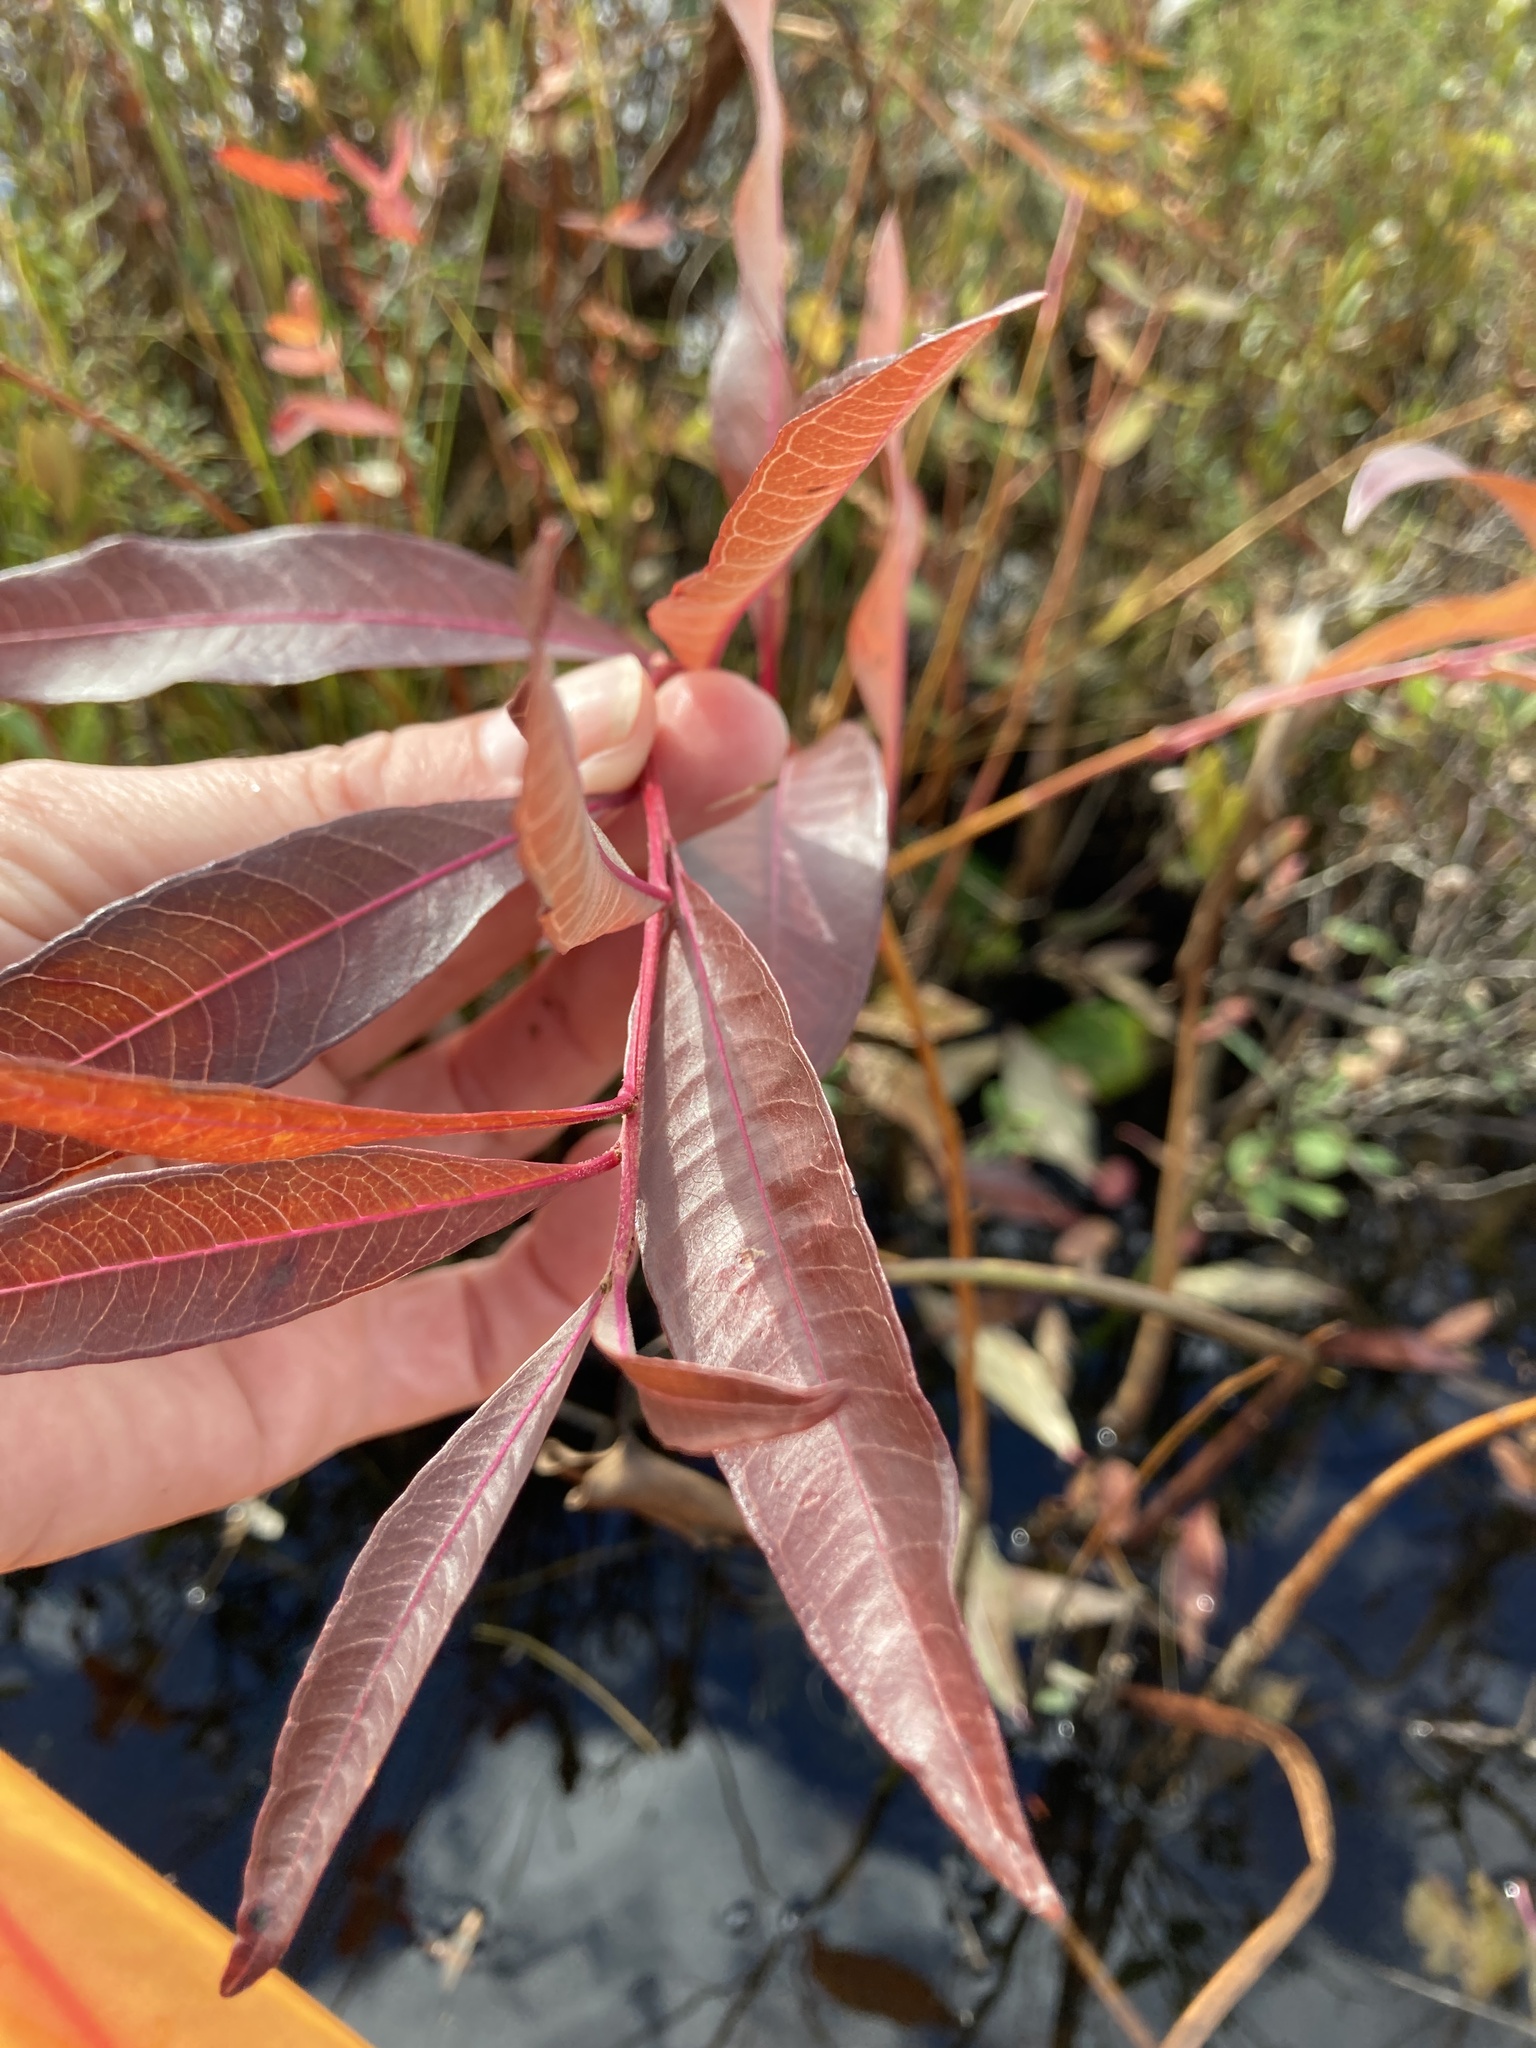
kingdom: Plantae
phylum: Tracheophyta
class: Magnoliopsida
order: Myrtales
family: Lythraceae
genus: Decodon
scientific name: Decodon verticillatus
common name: Hairy swamp loosestrife
